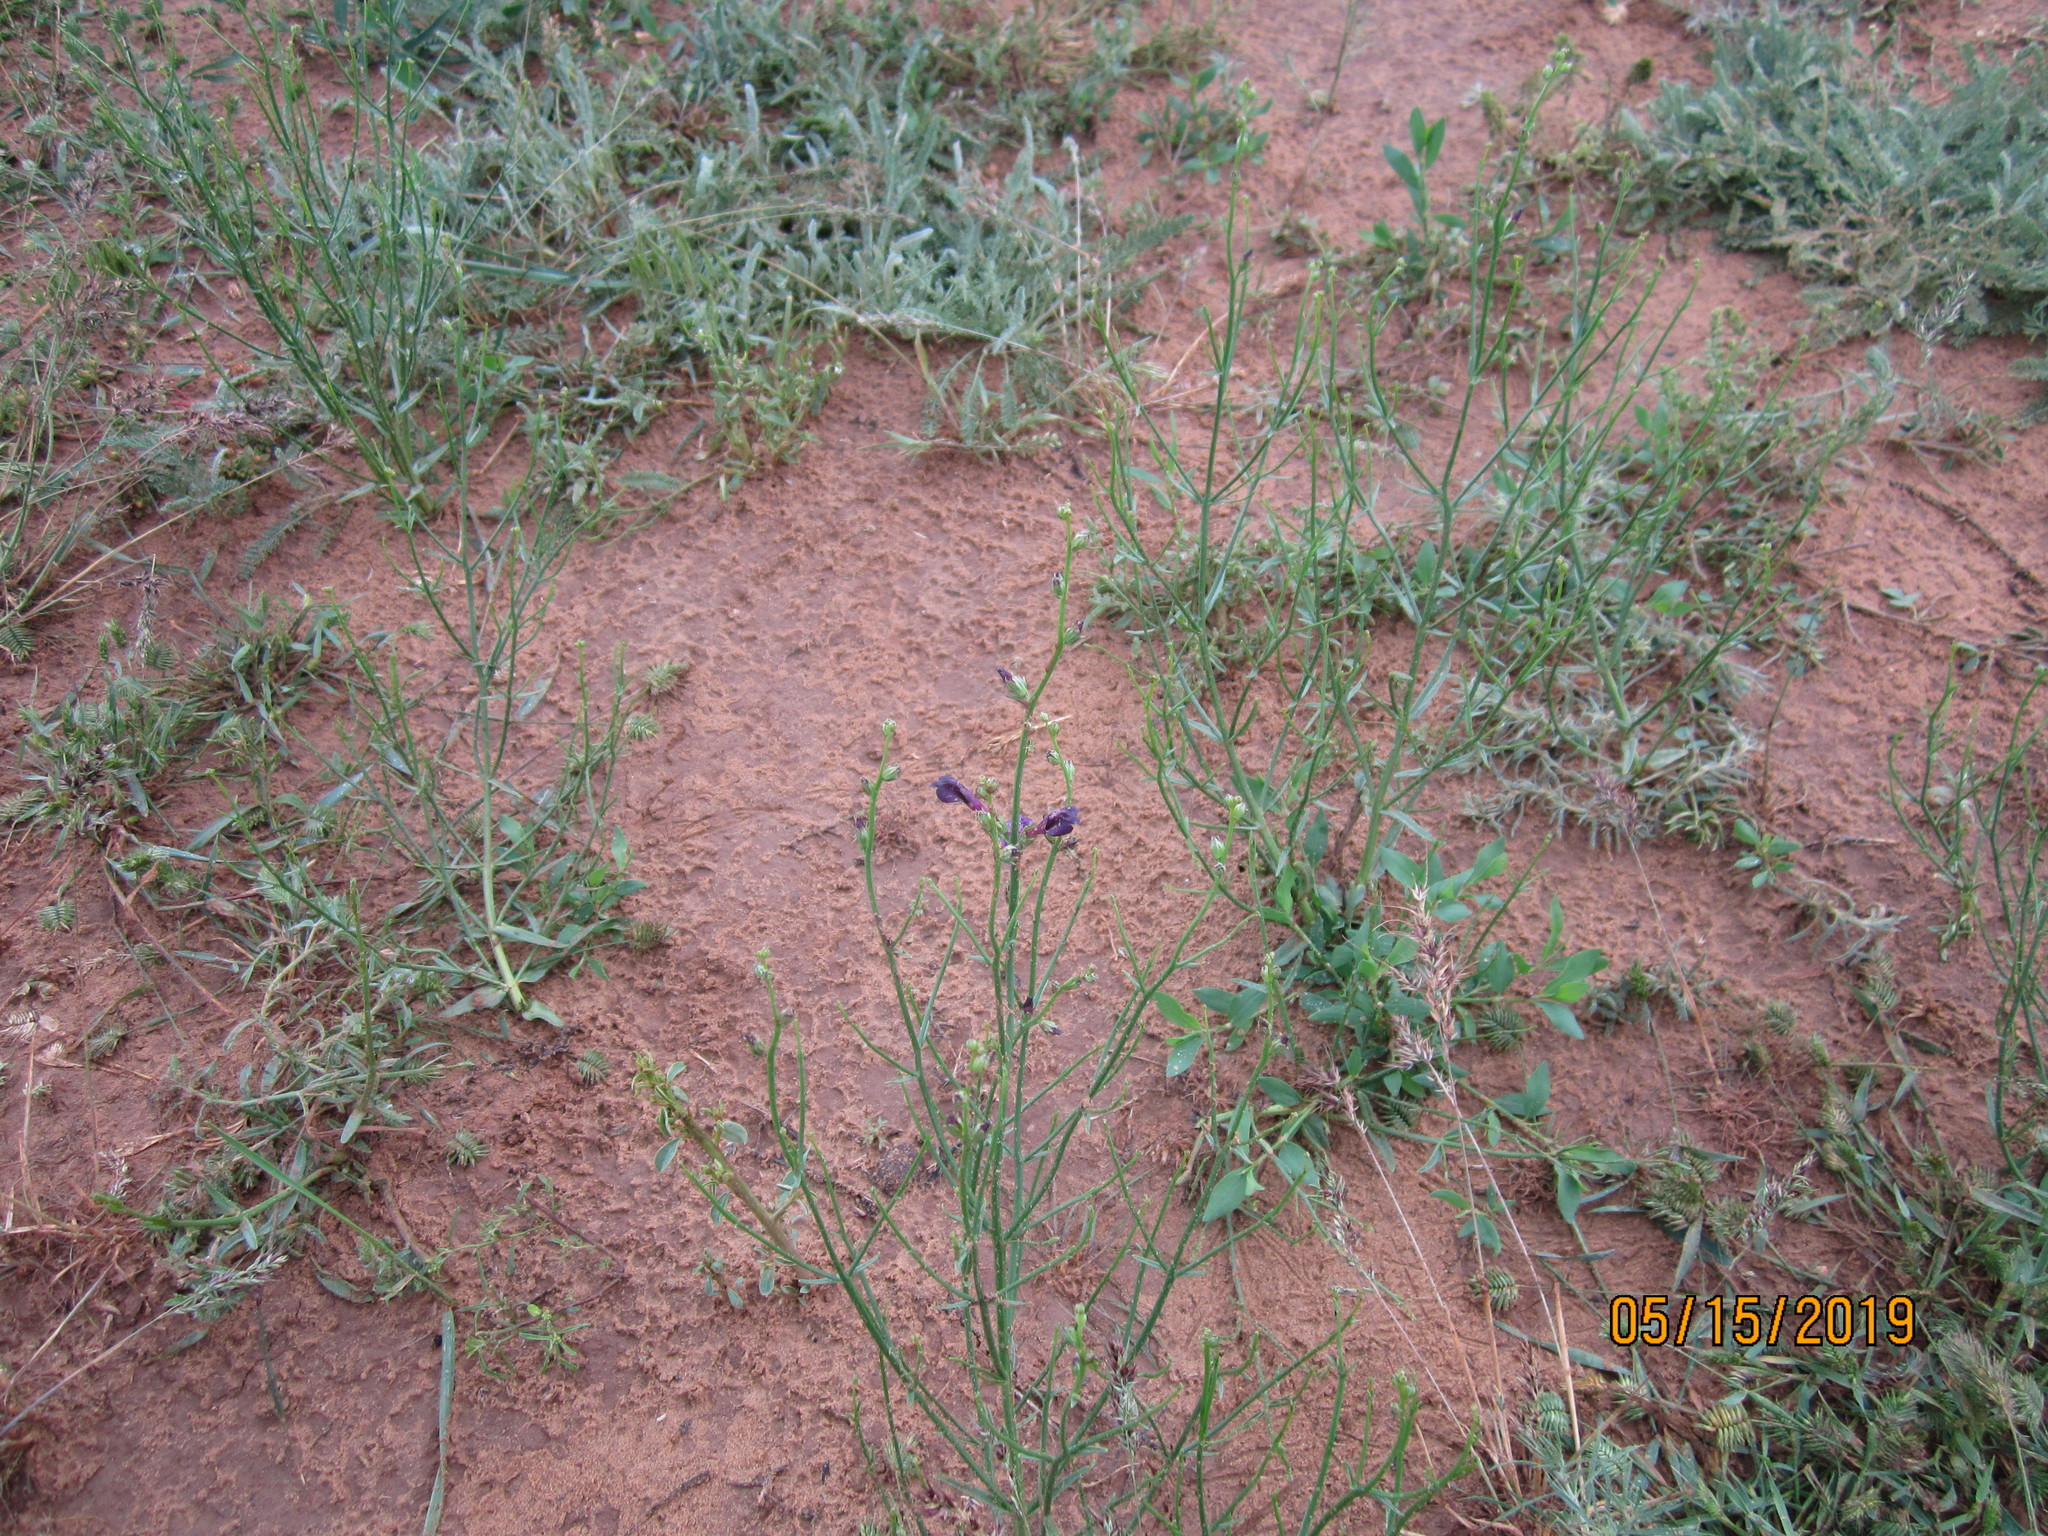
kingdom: Plantae
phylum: Tracheophyta
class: Magnoliopsida
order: Lamiales
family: Mazaceae
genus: Dodartia
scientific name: Dodartia orientalis
